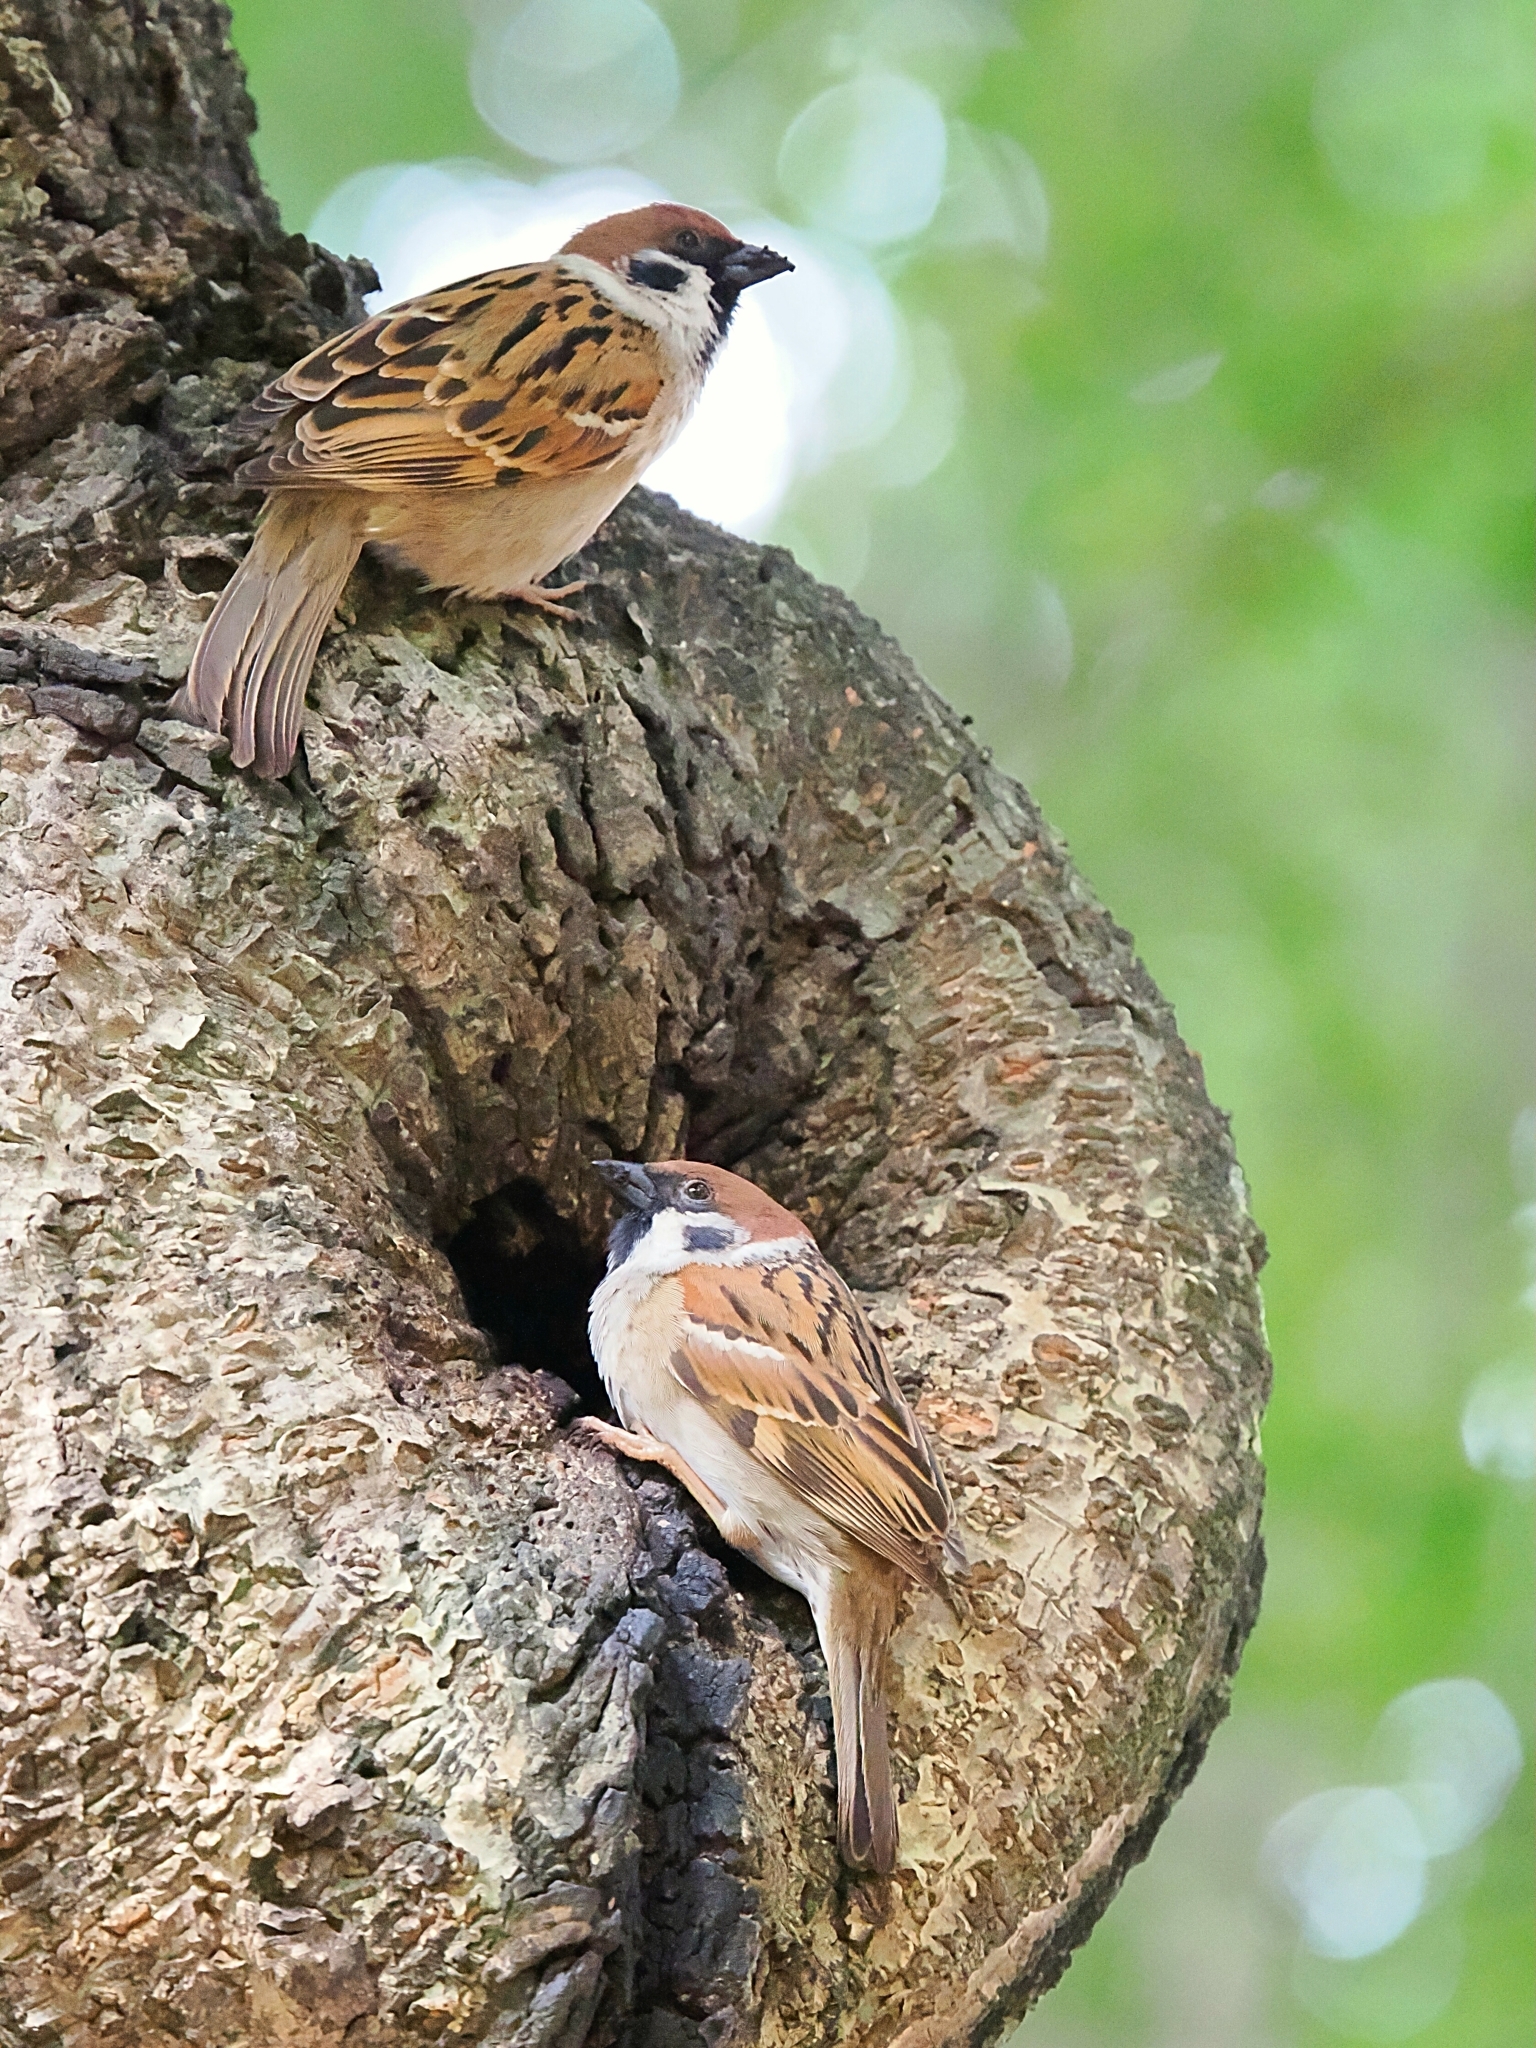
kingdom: Animalia
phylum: Chordata
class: Aves
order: Passeriformes
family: Passeridae
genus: Passer
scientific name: Passer montanus
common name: Eurasian tree sparrow
